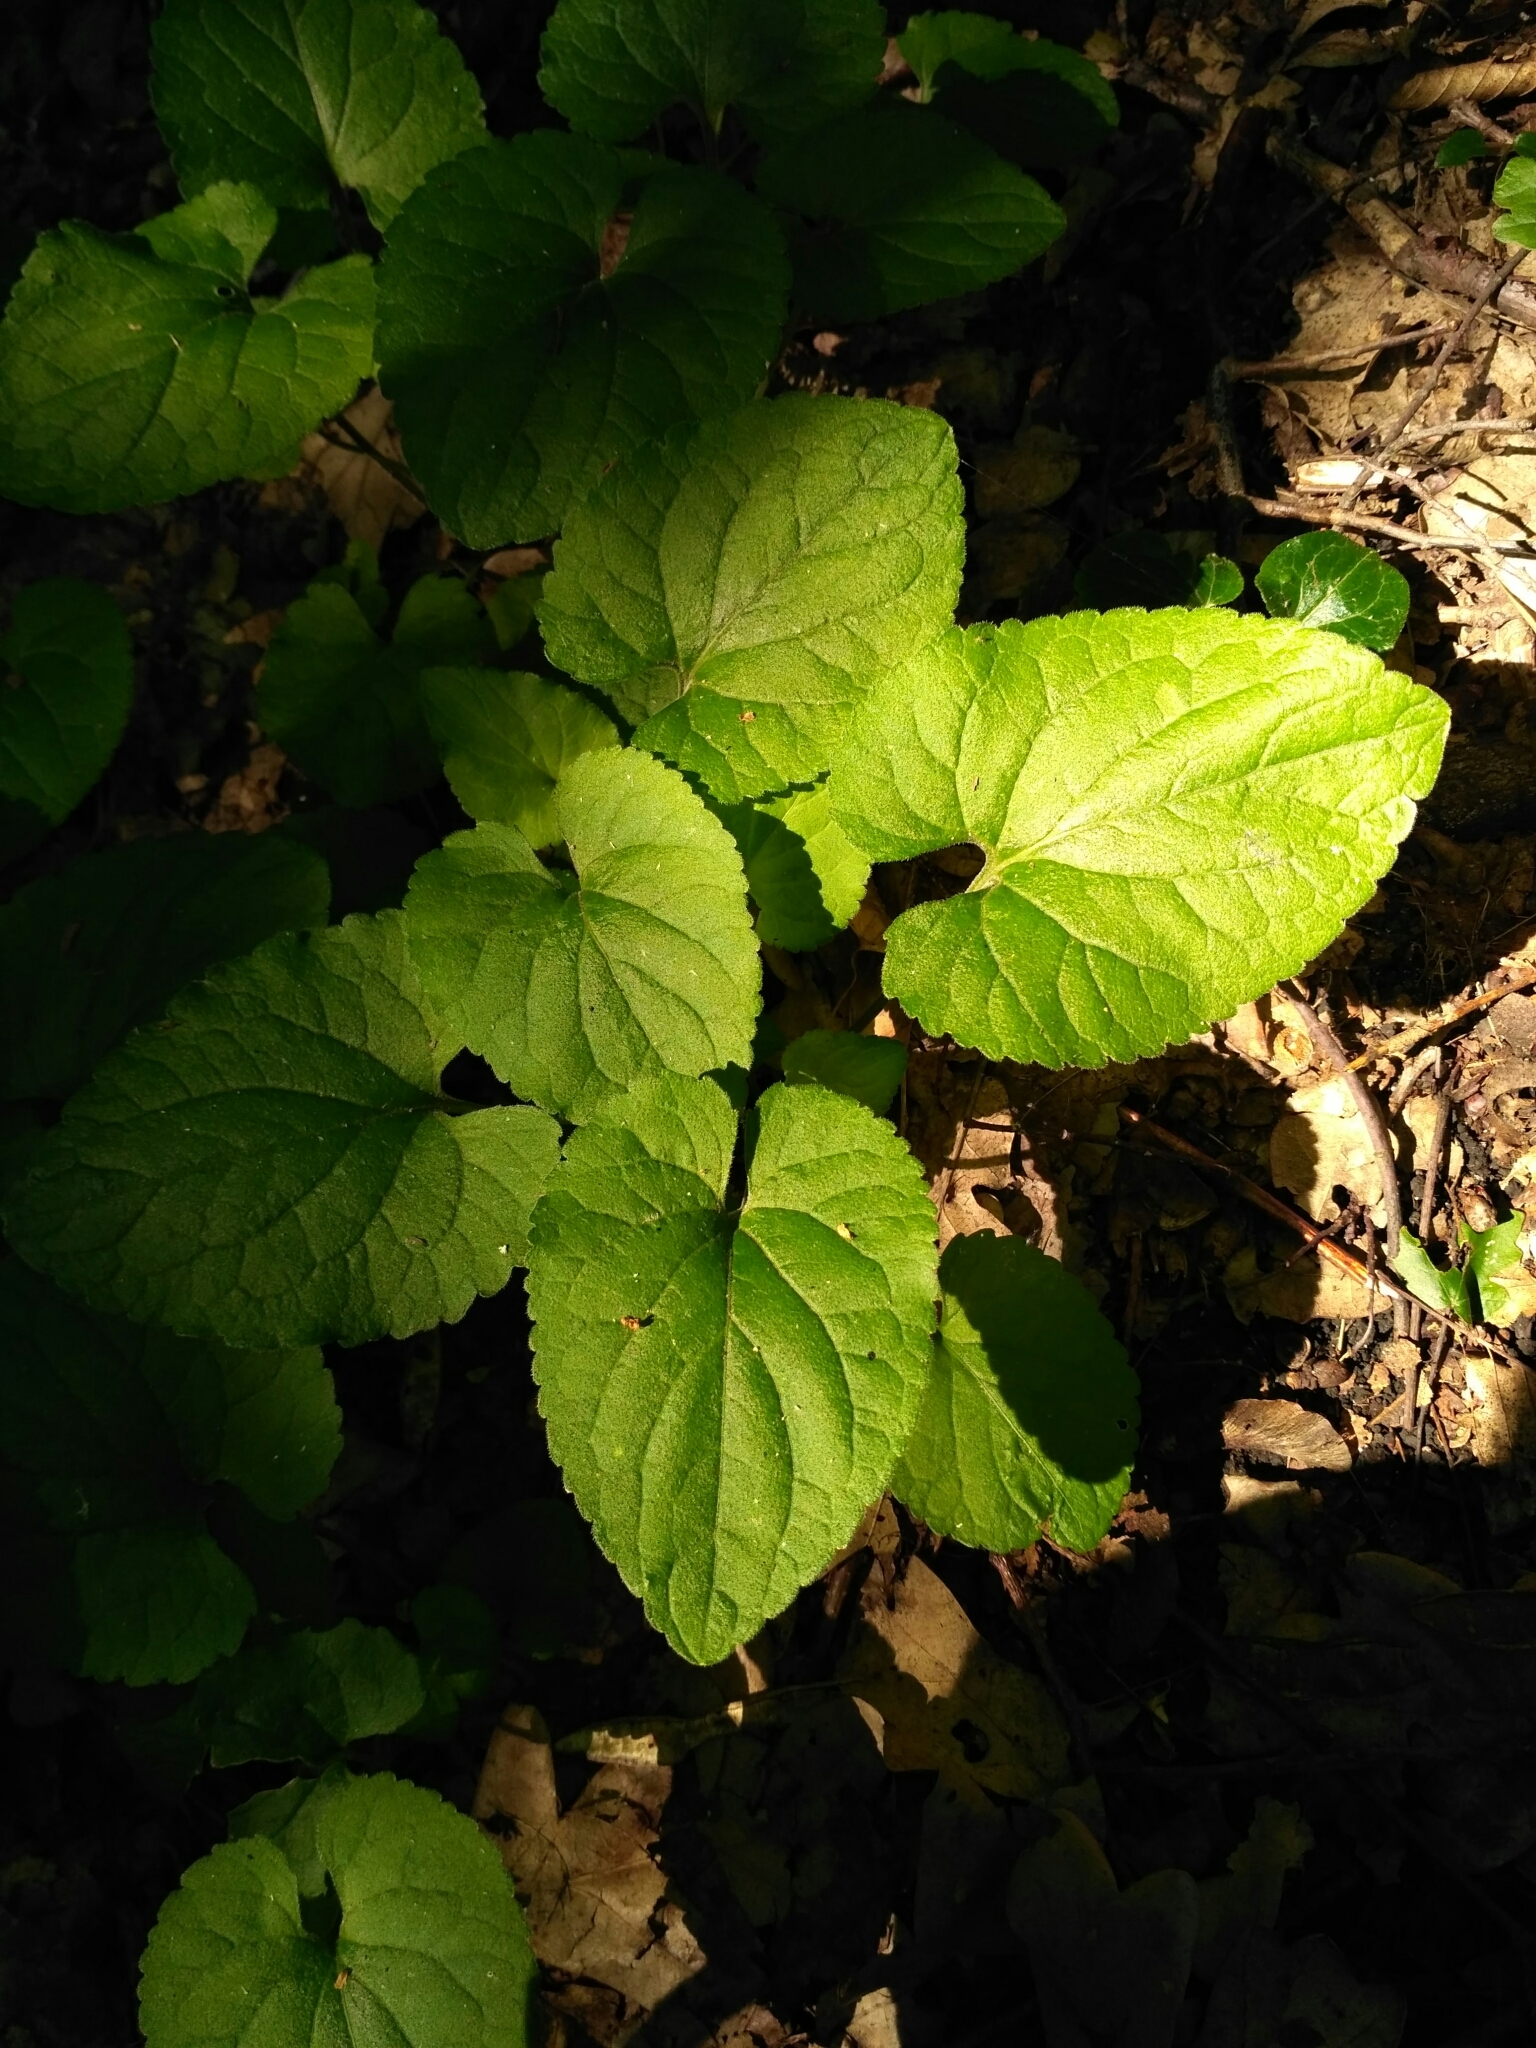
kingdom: Plantae
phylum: Tracheophyta
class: Magnoliopsida
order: Malpighiales
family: Violaceae
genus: Viola
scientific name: Viola suavis
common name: Russian violet
